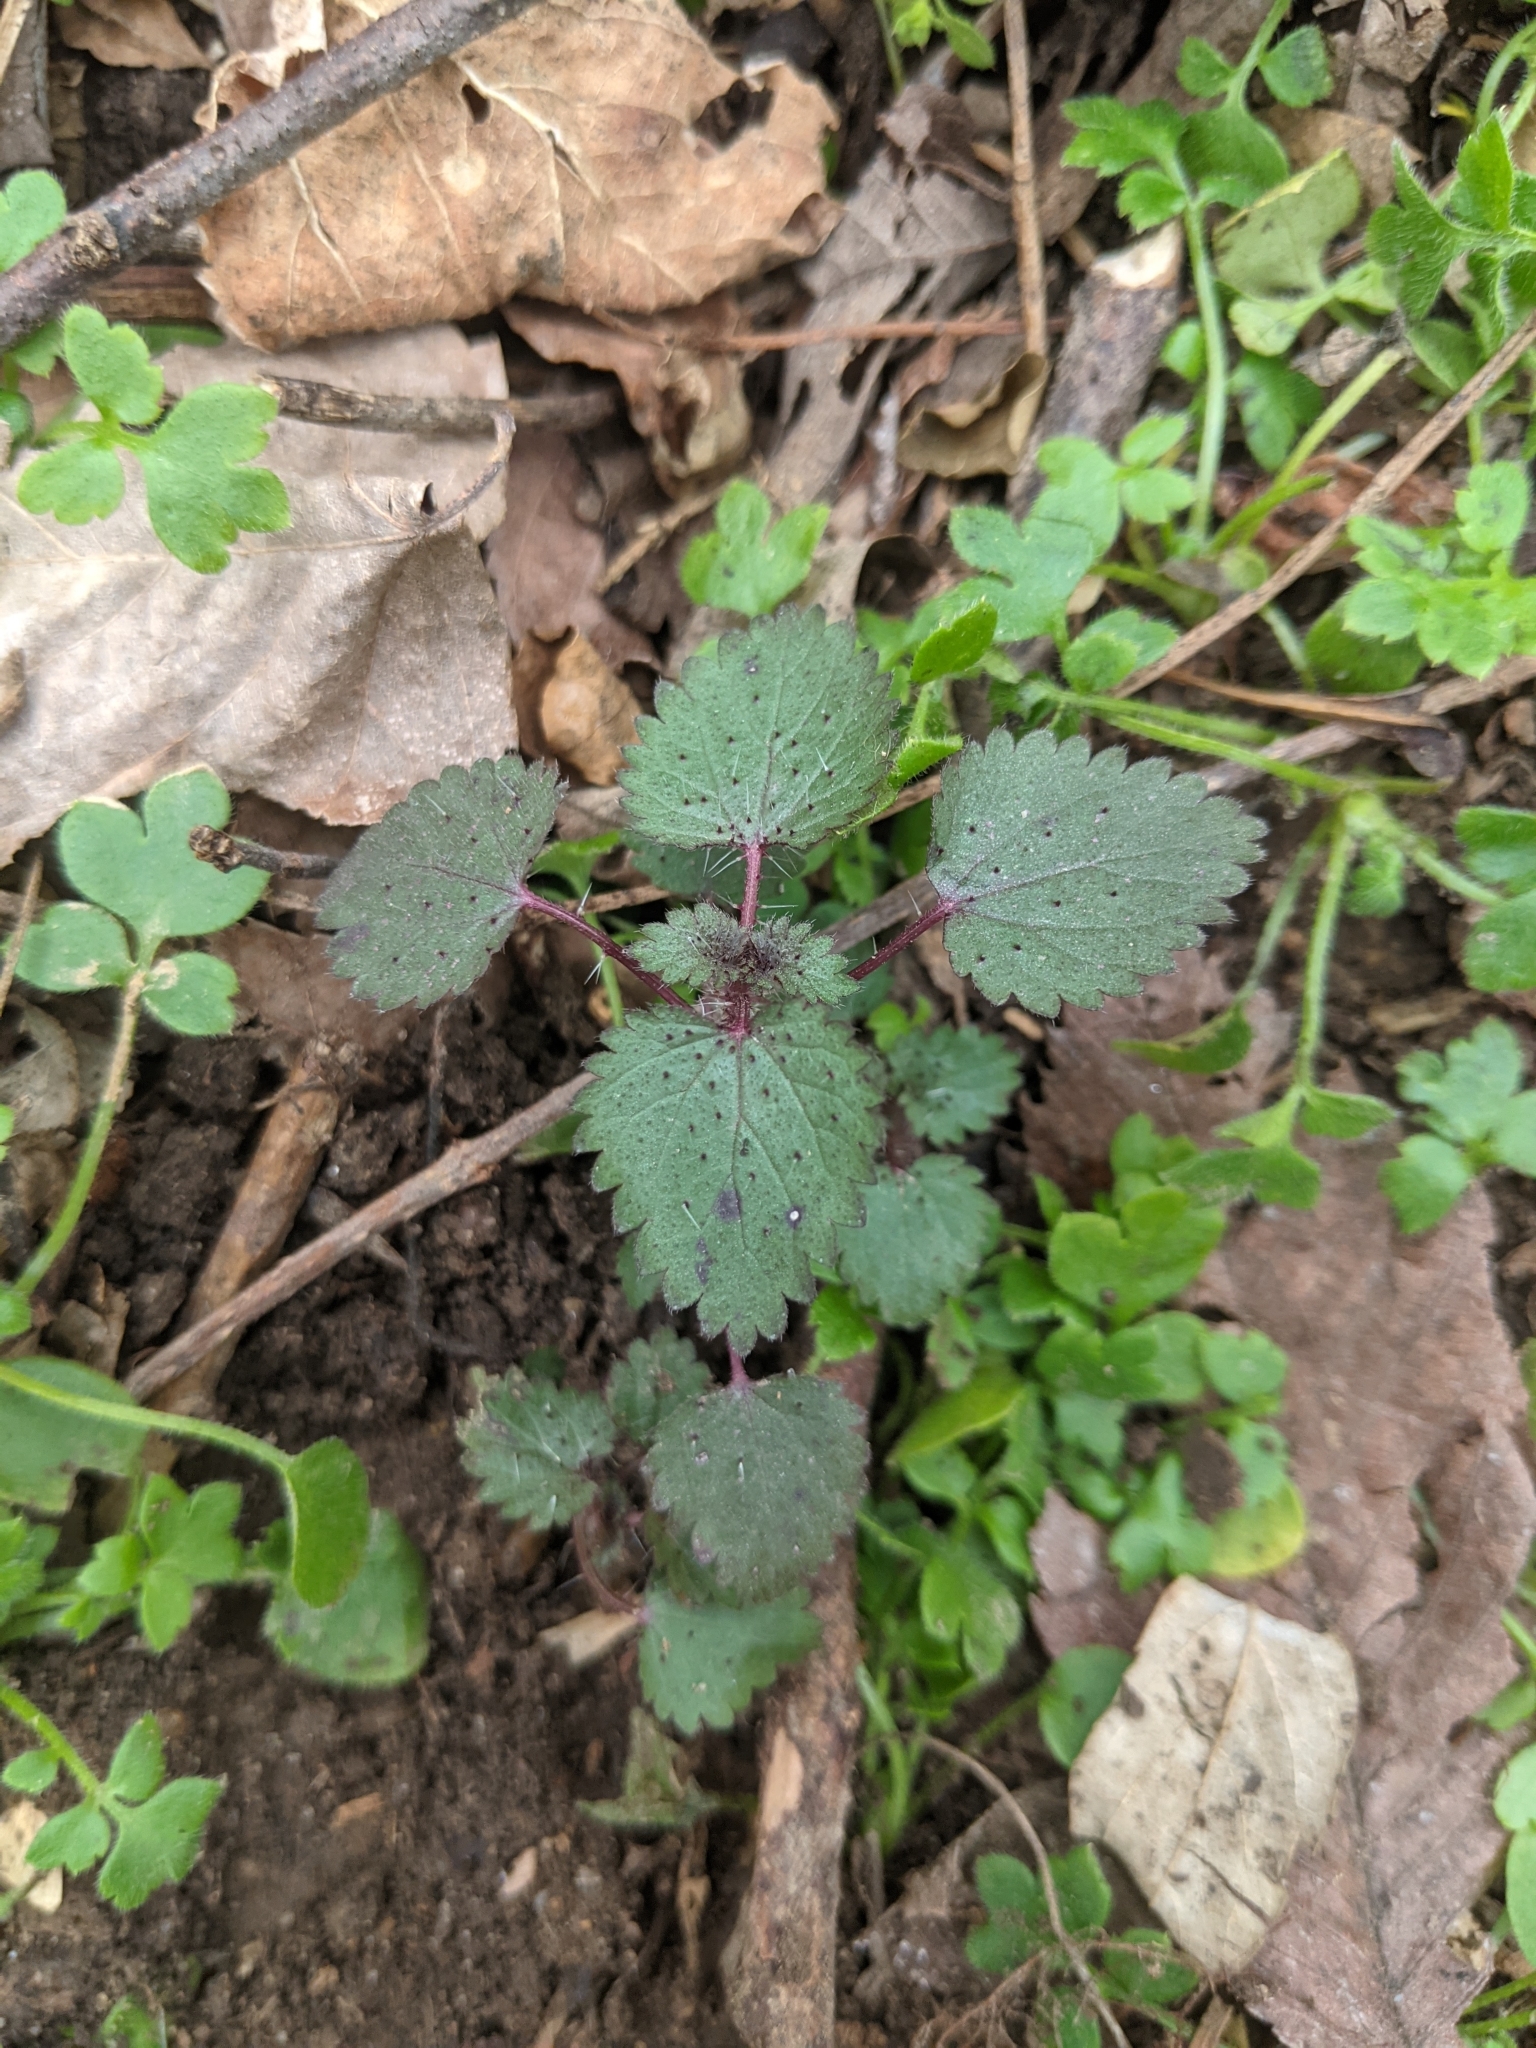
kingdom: Plantae
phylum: Tracheophyta
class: Magnoliopsida
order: Rosales
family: Urticaceae
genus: Urtica
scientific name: Urtica chamaedryoides
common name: Heart-leaf nettle
